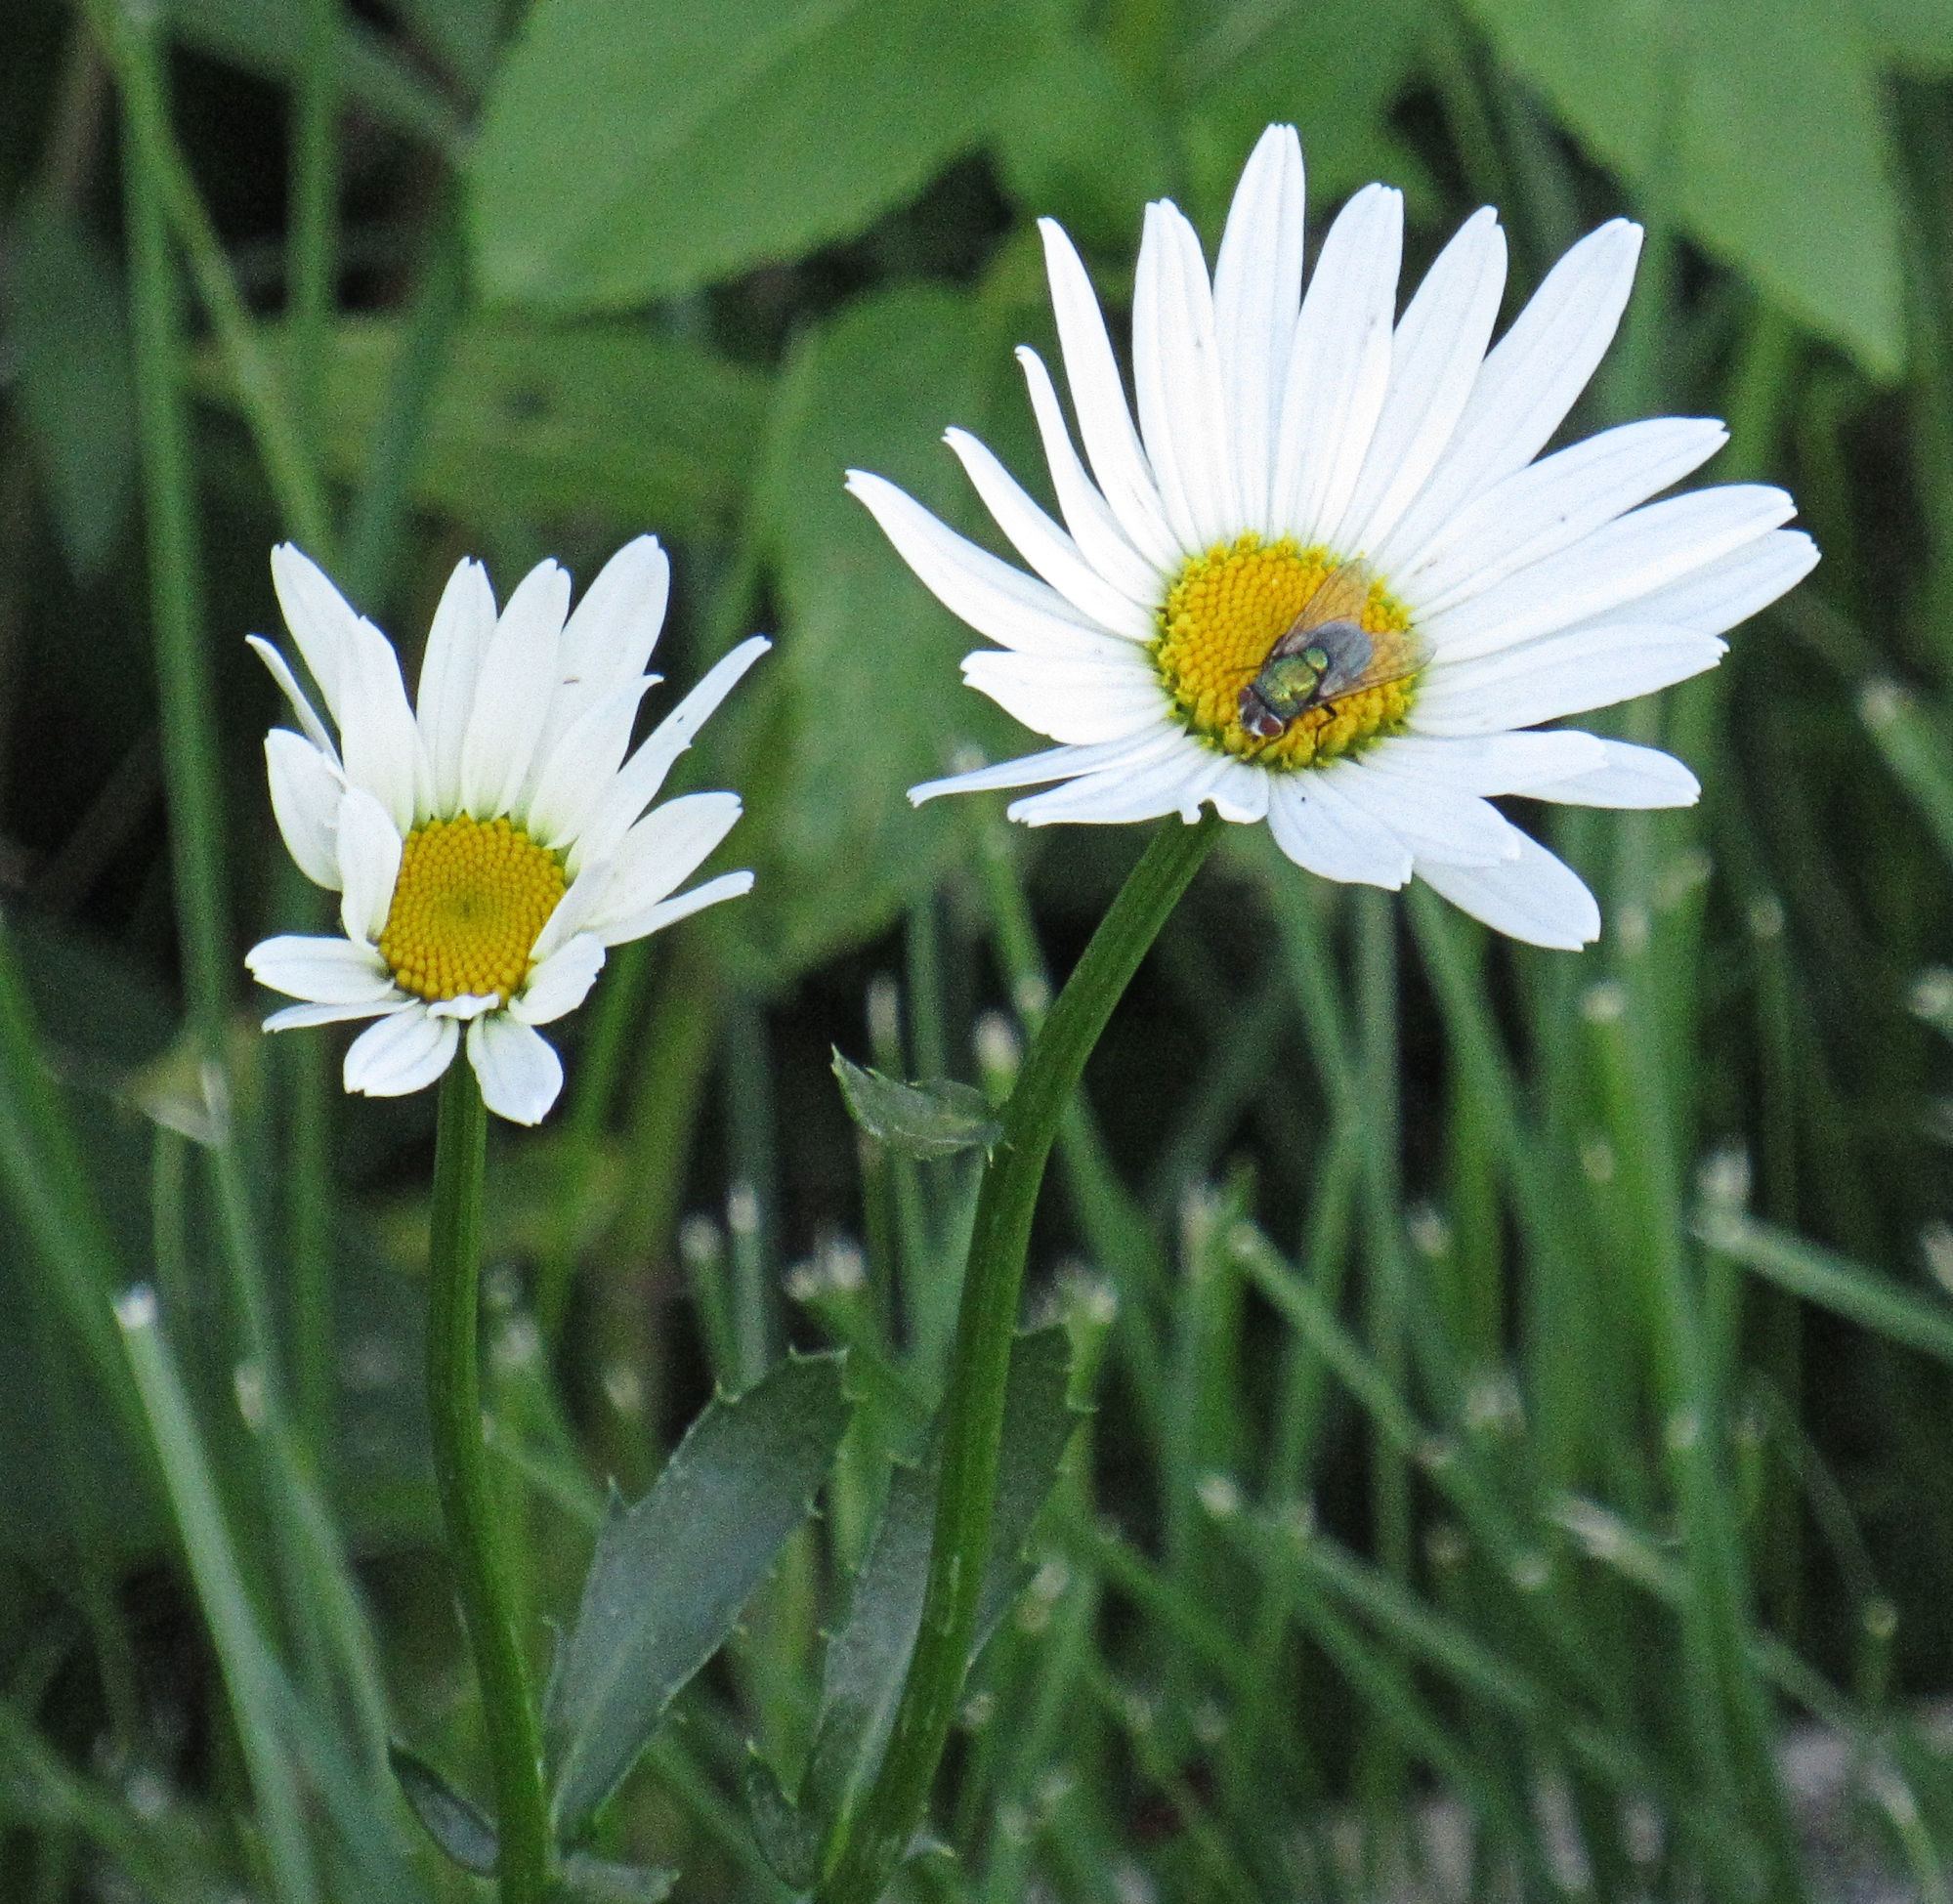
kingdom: Plantae
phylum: Tracheophyta
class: Magnoliopsida
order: Asterales
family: Asteraceae
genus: Leucanthemum
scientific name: Leucanthemum vulgare
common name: Oxeye daisy
